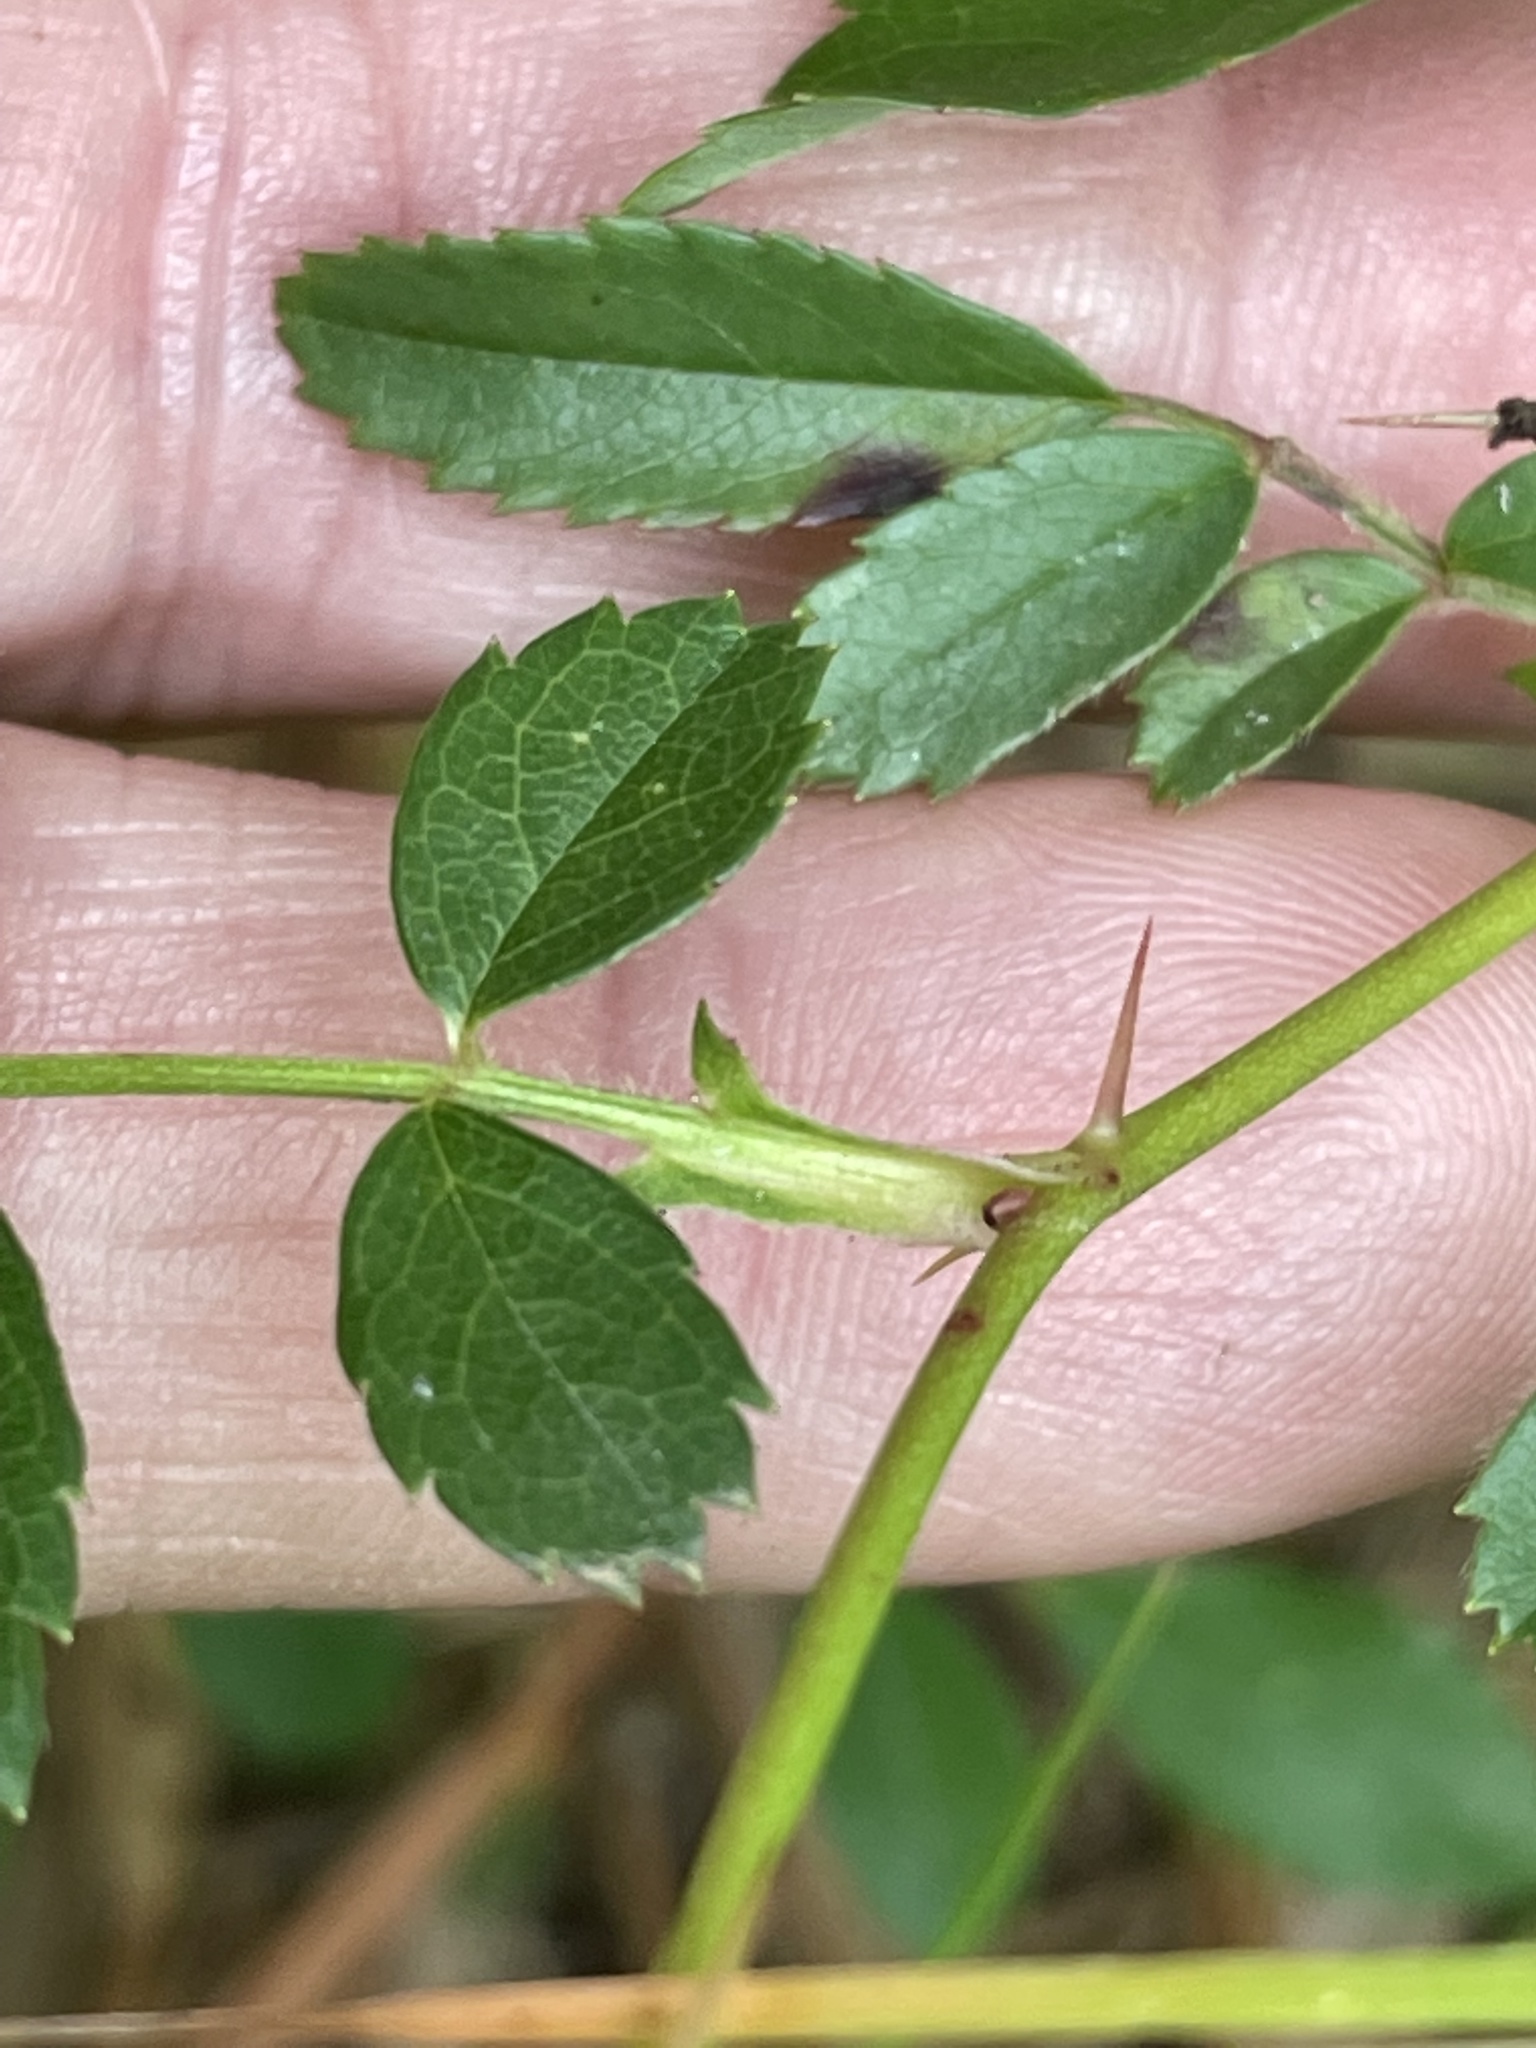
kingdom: Plantae
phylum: Tracheophyta
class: Magnoliopsida
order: Rosales
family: Rosaceae
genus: Rosa
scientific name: Rosa carolina
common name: Pasture rose
